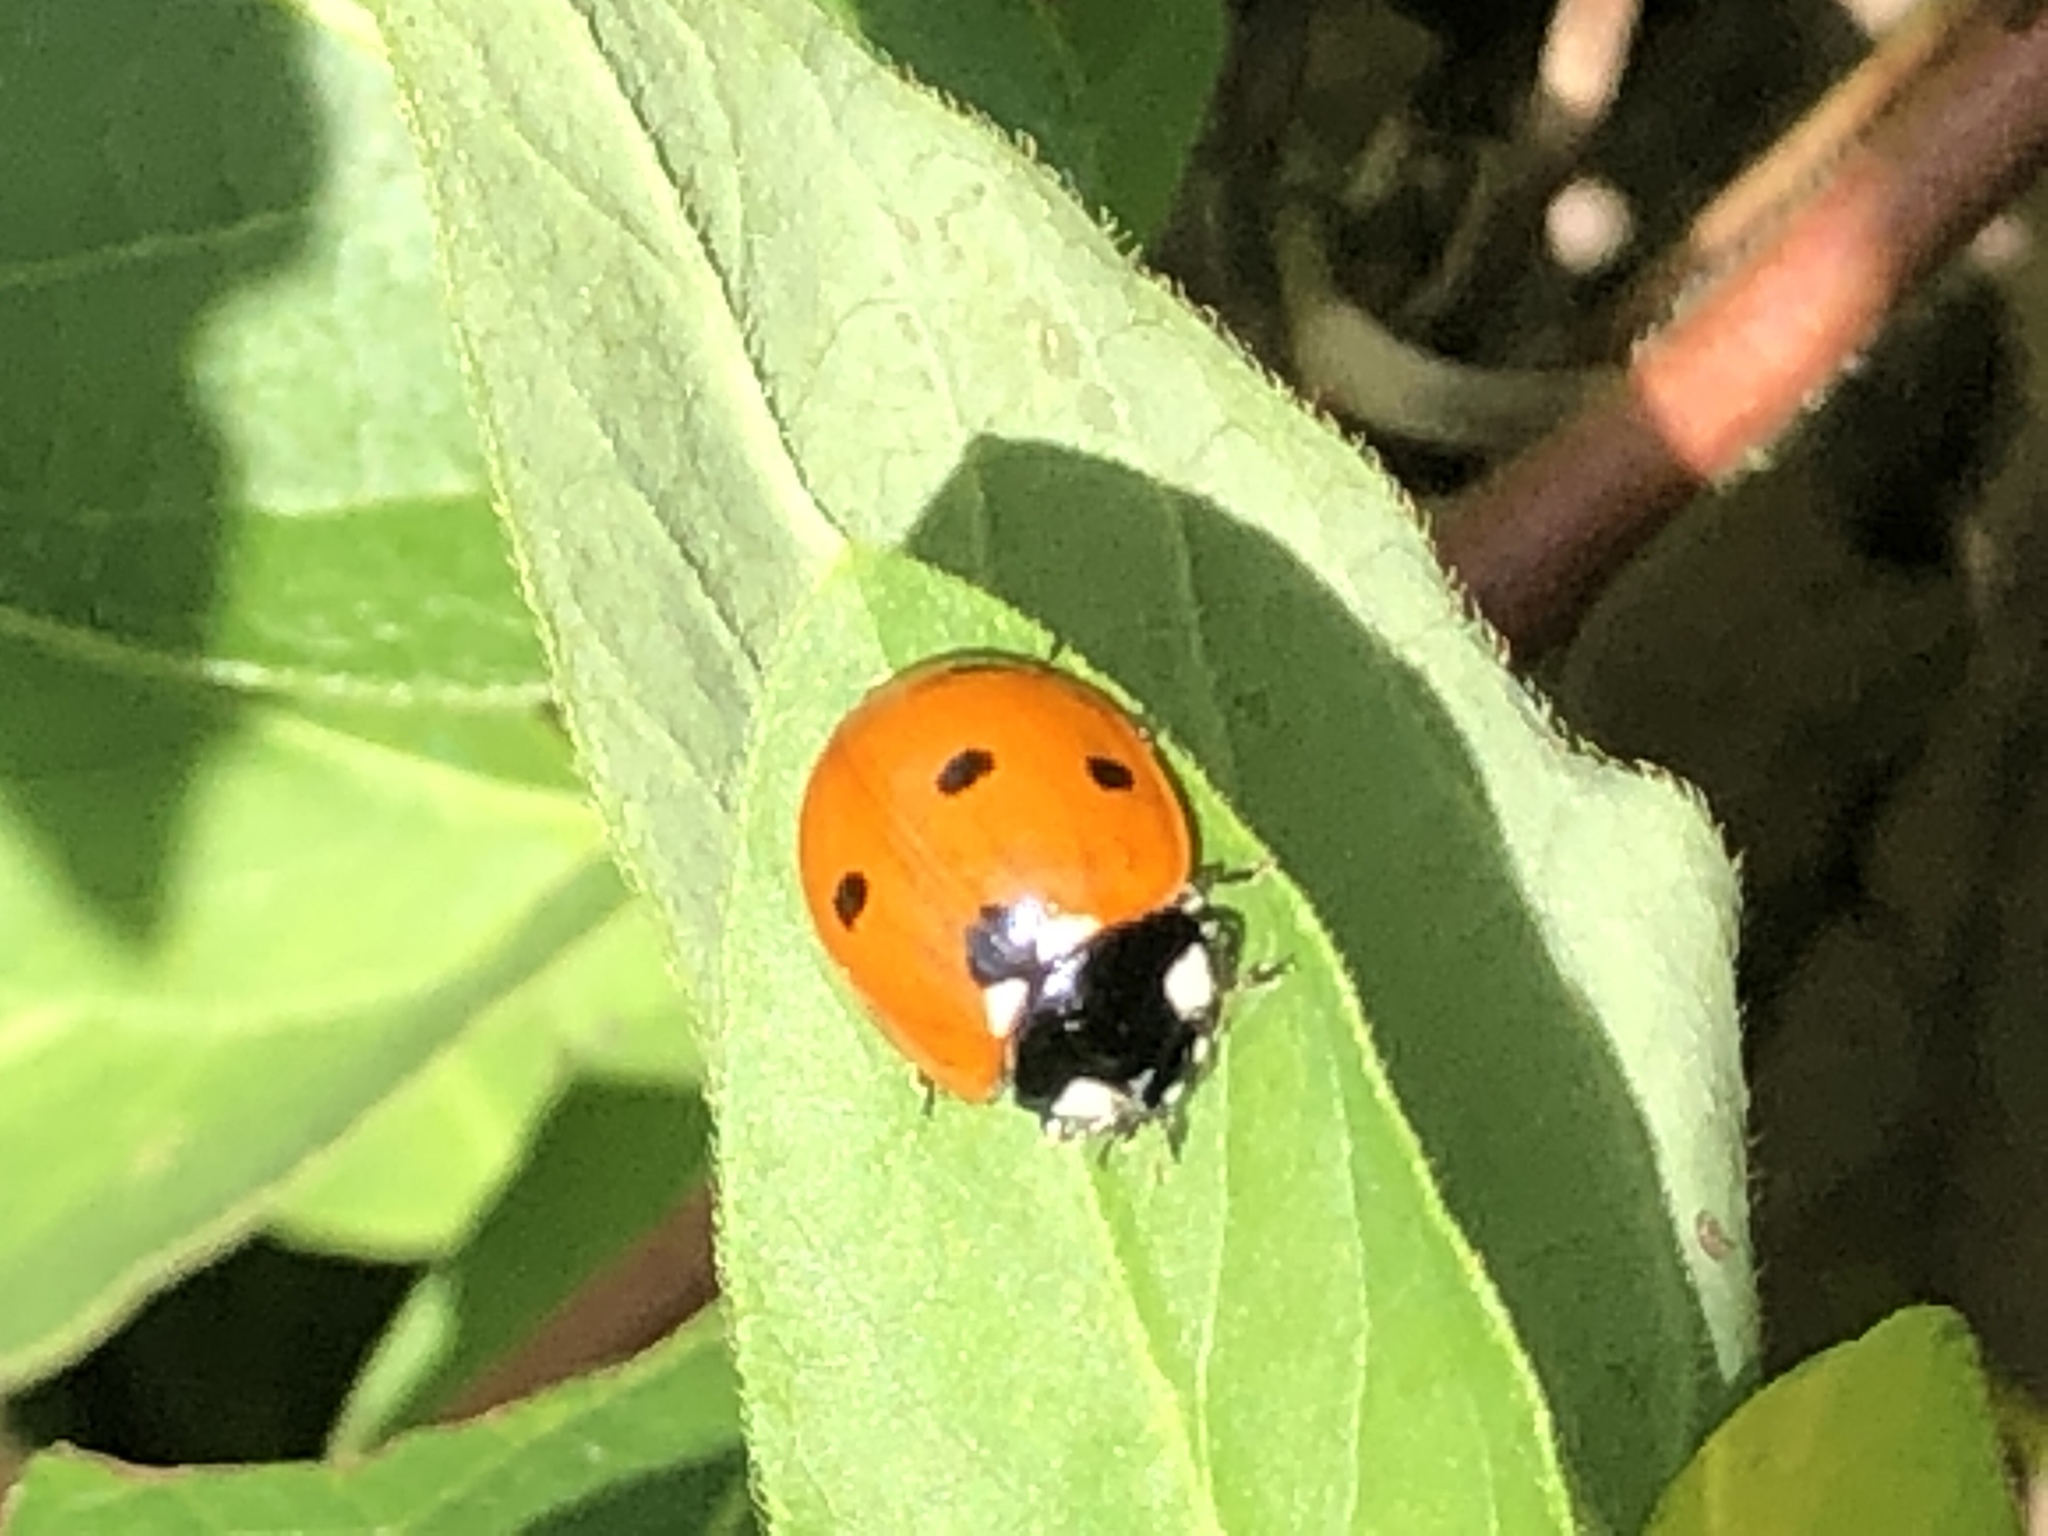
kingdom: Animalia
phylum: Arthropoda
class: Insecta
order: Coleoptera
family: Coccinellidae
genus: Coccinella
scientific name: Coccinella septempunctata
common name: Sevenspotted lady beetle
